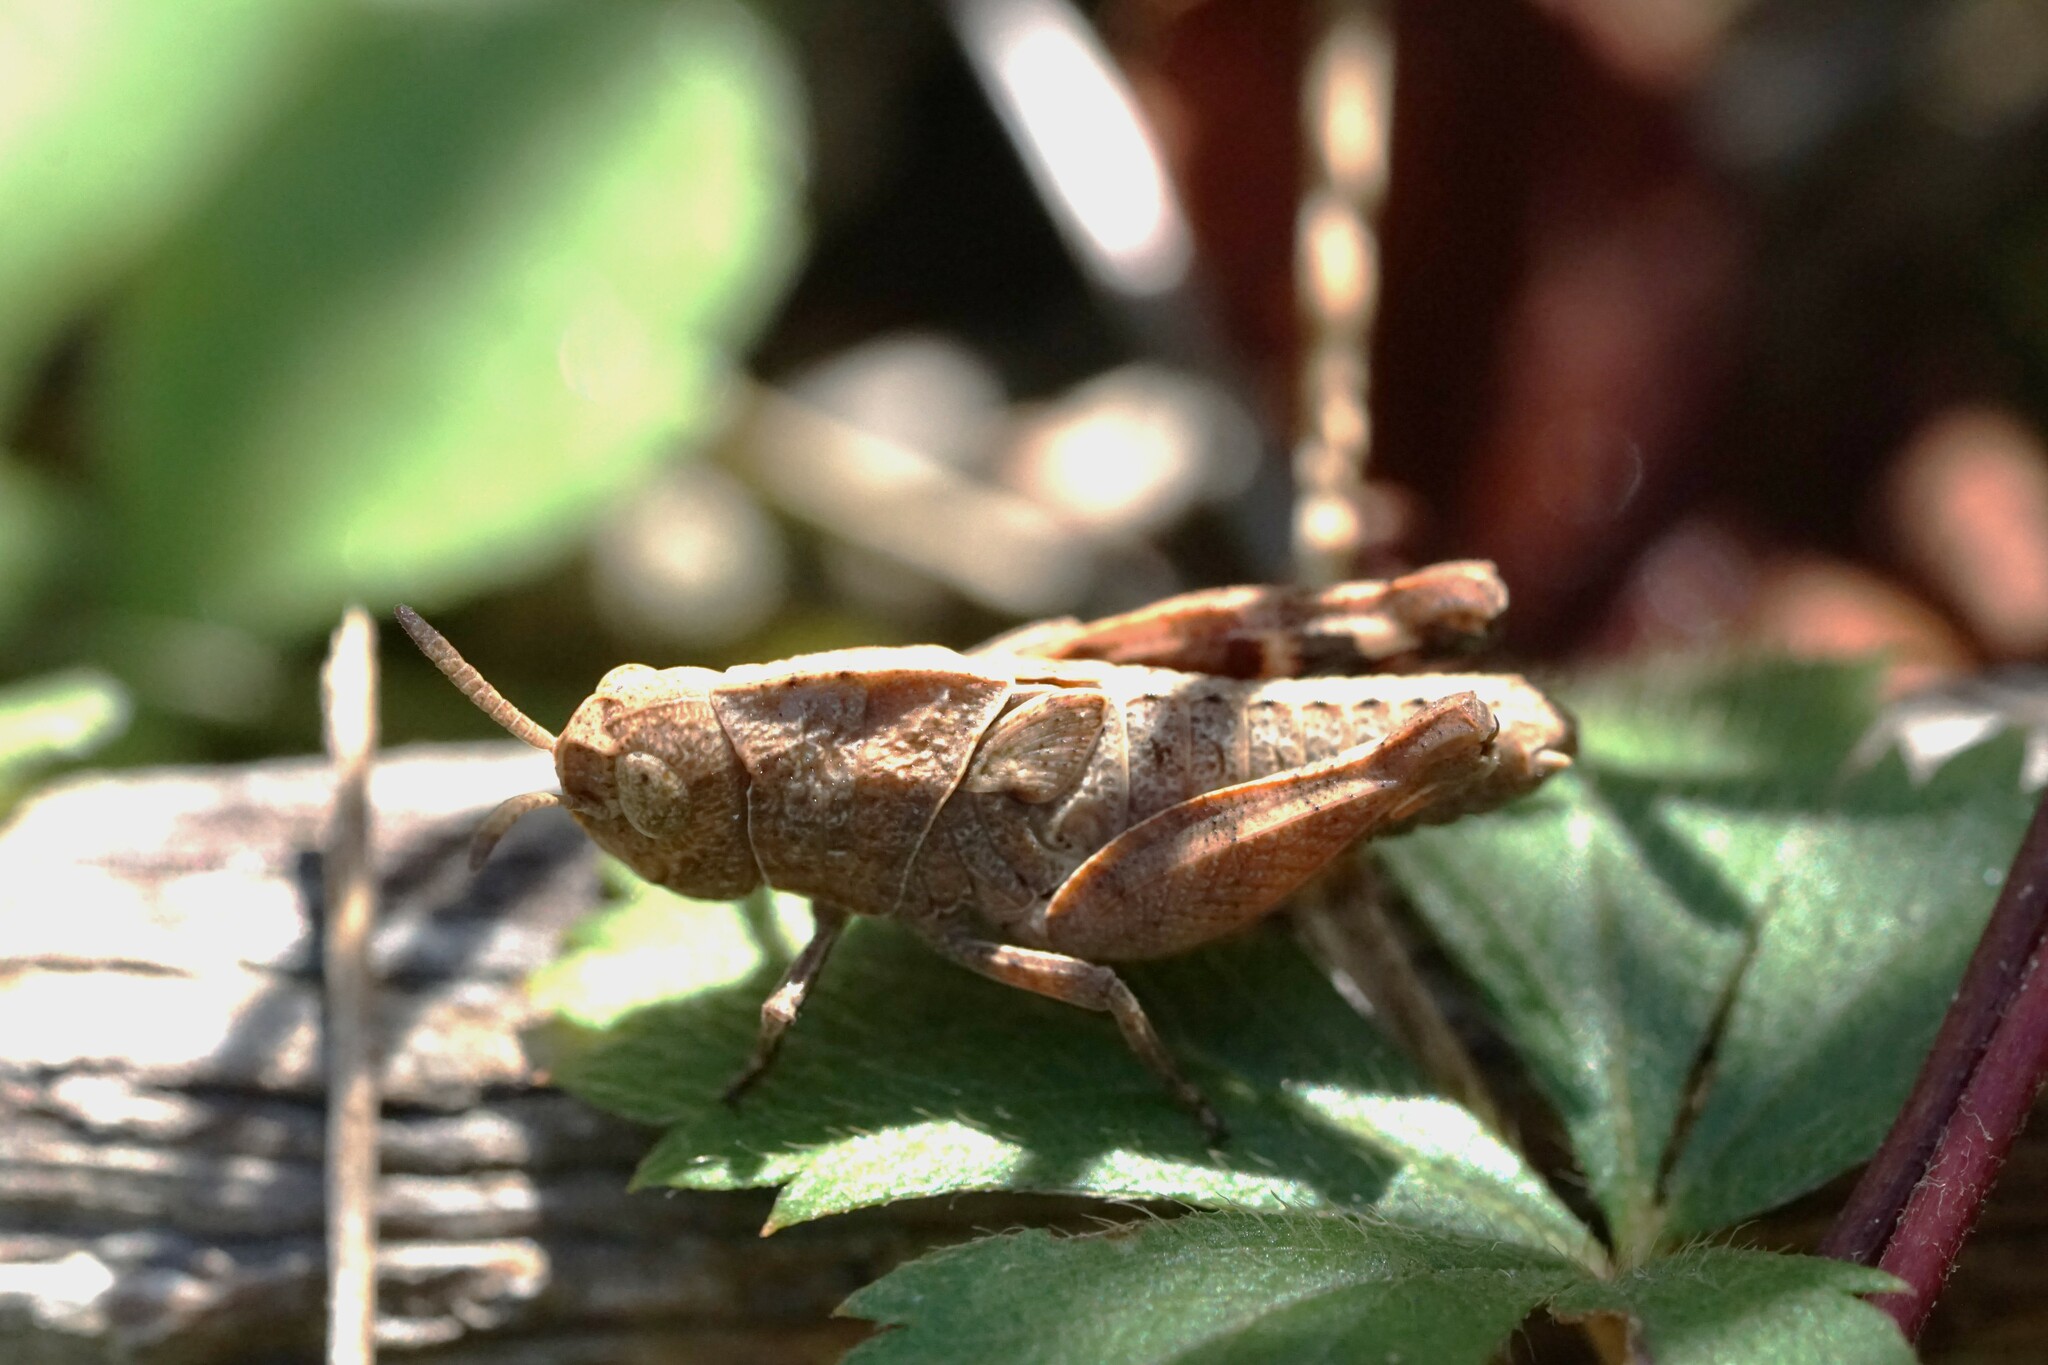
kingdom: Animalia
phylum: Arthropoda
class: Insecta
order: Orthoptera
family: Acrididae
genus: Arphia
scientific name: Arphia sulphurea
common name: Spring yellow-winged locust
